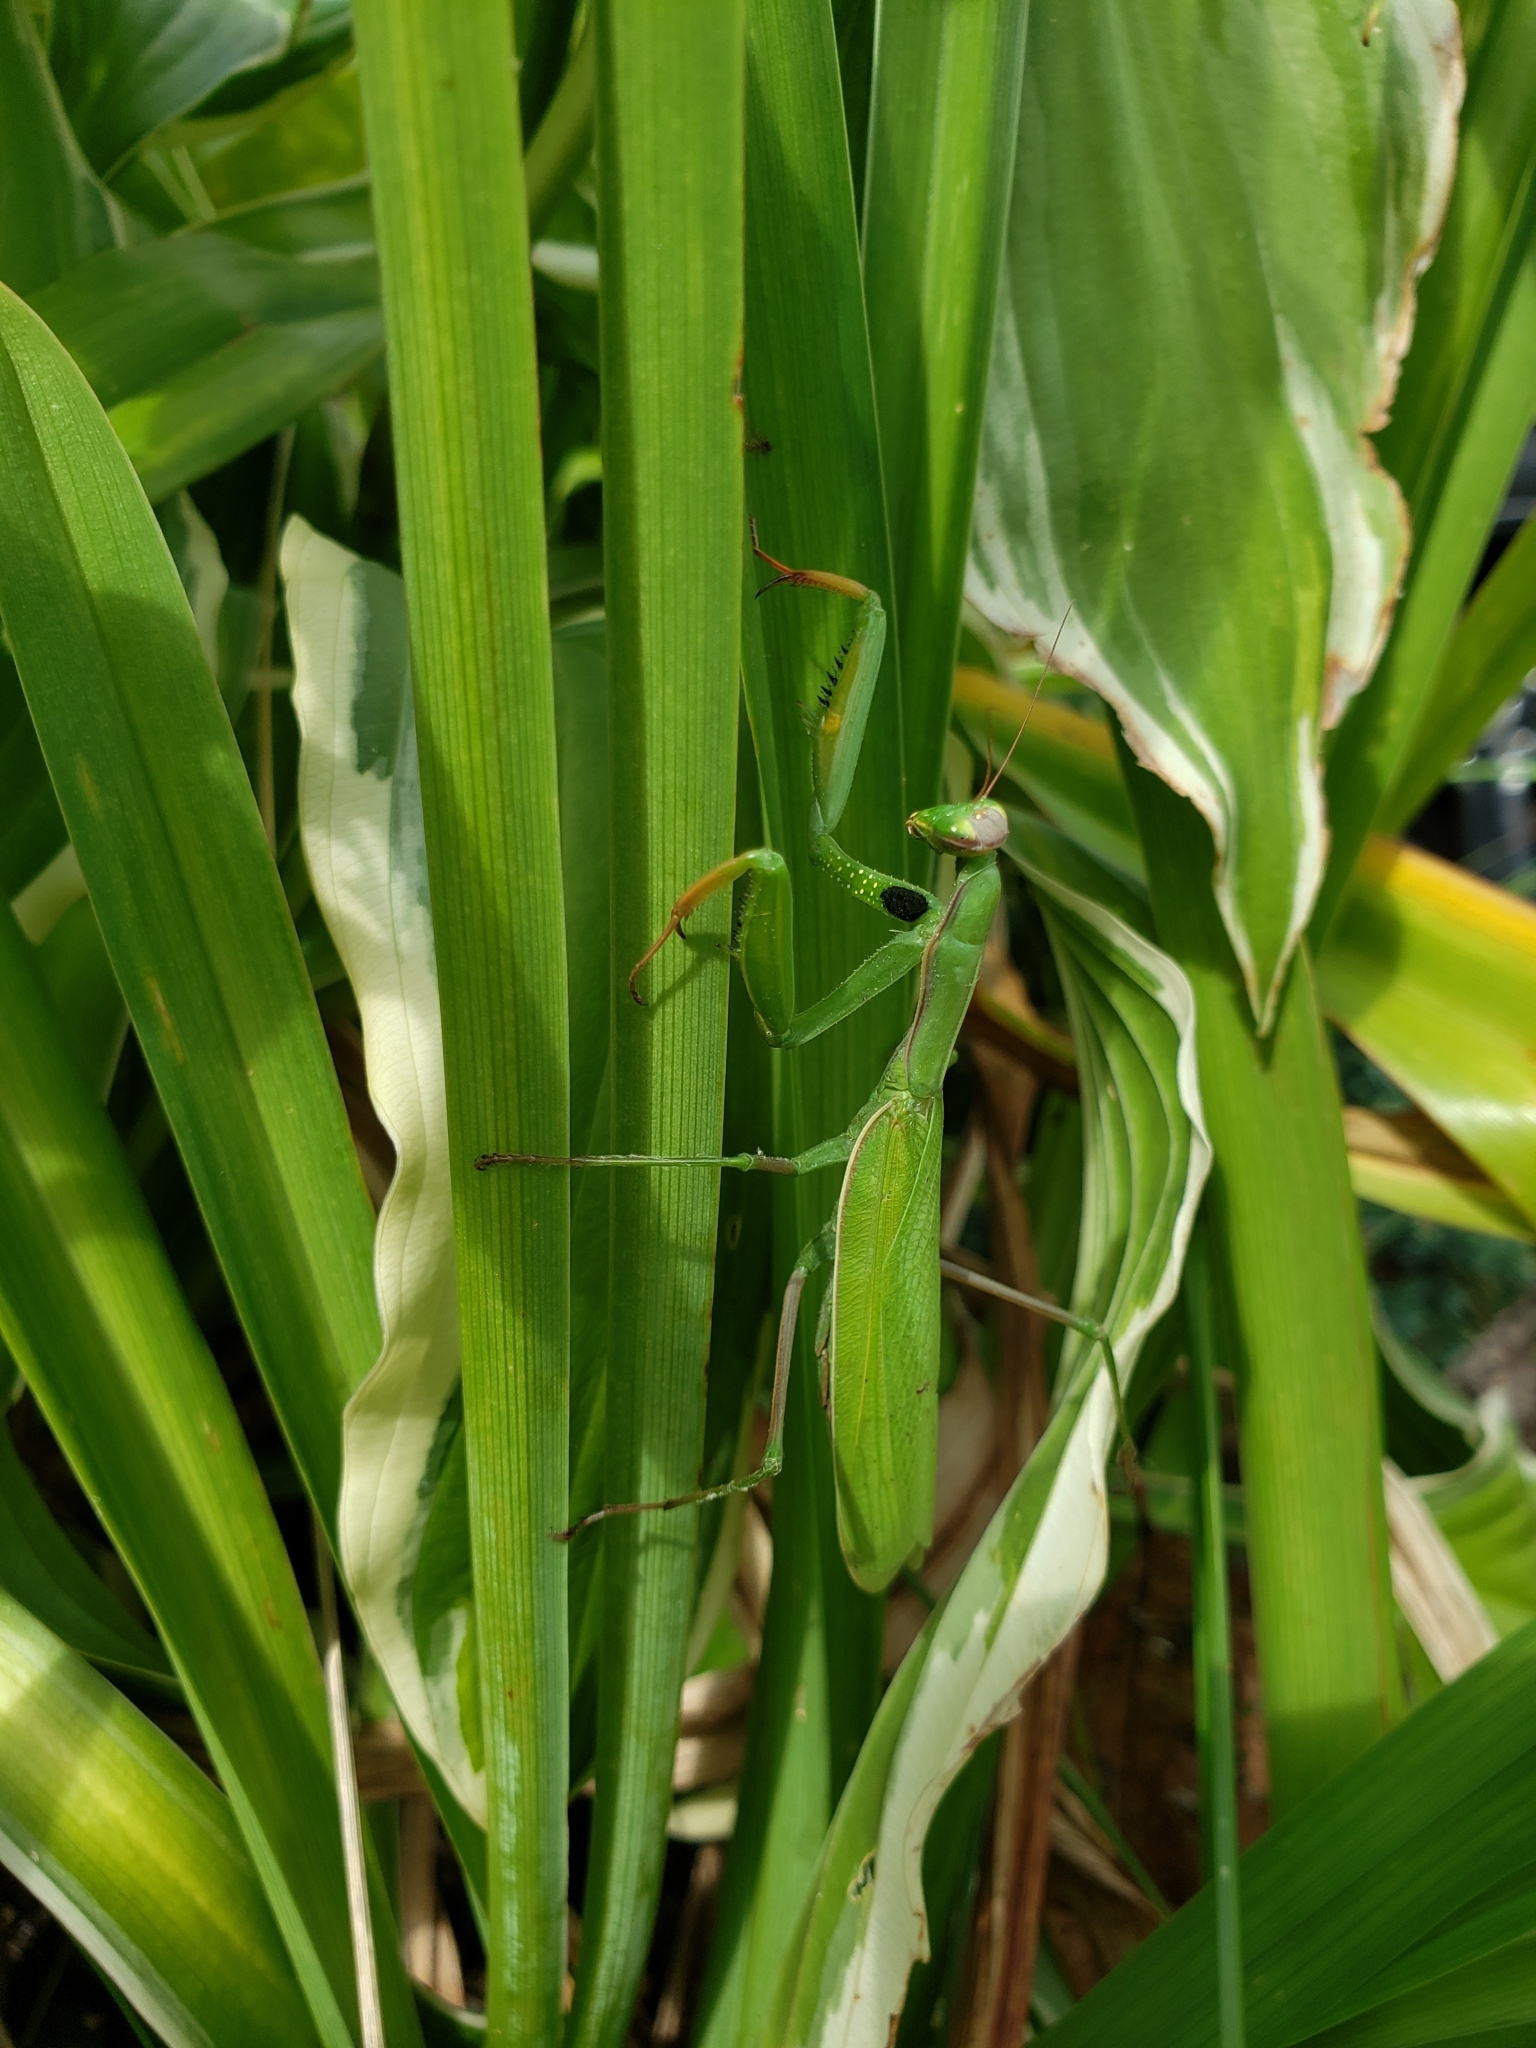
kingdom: Animalia
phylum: Arthropoda
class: Insecta
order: Mantodea
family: Mantidae
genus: Mantis
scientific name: Mantis religiosa
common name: Praying mantis
